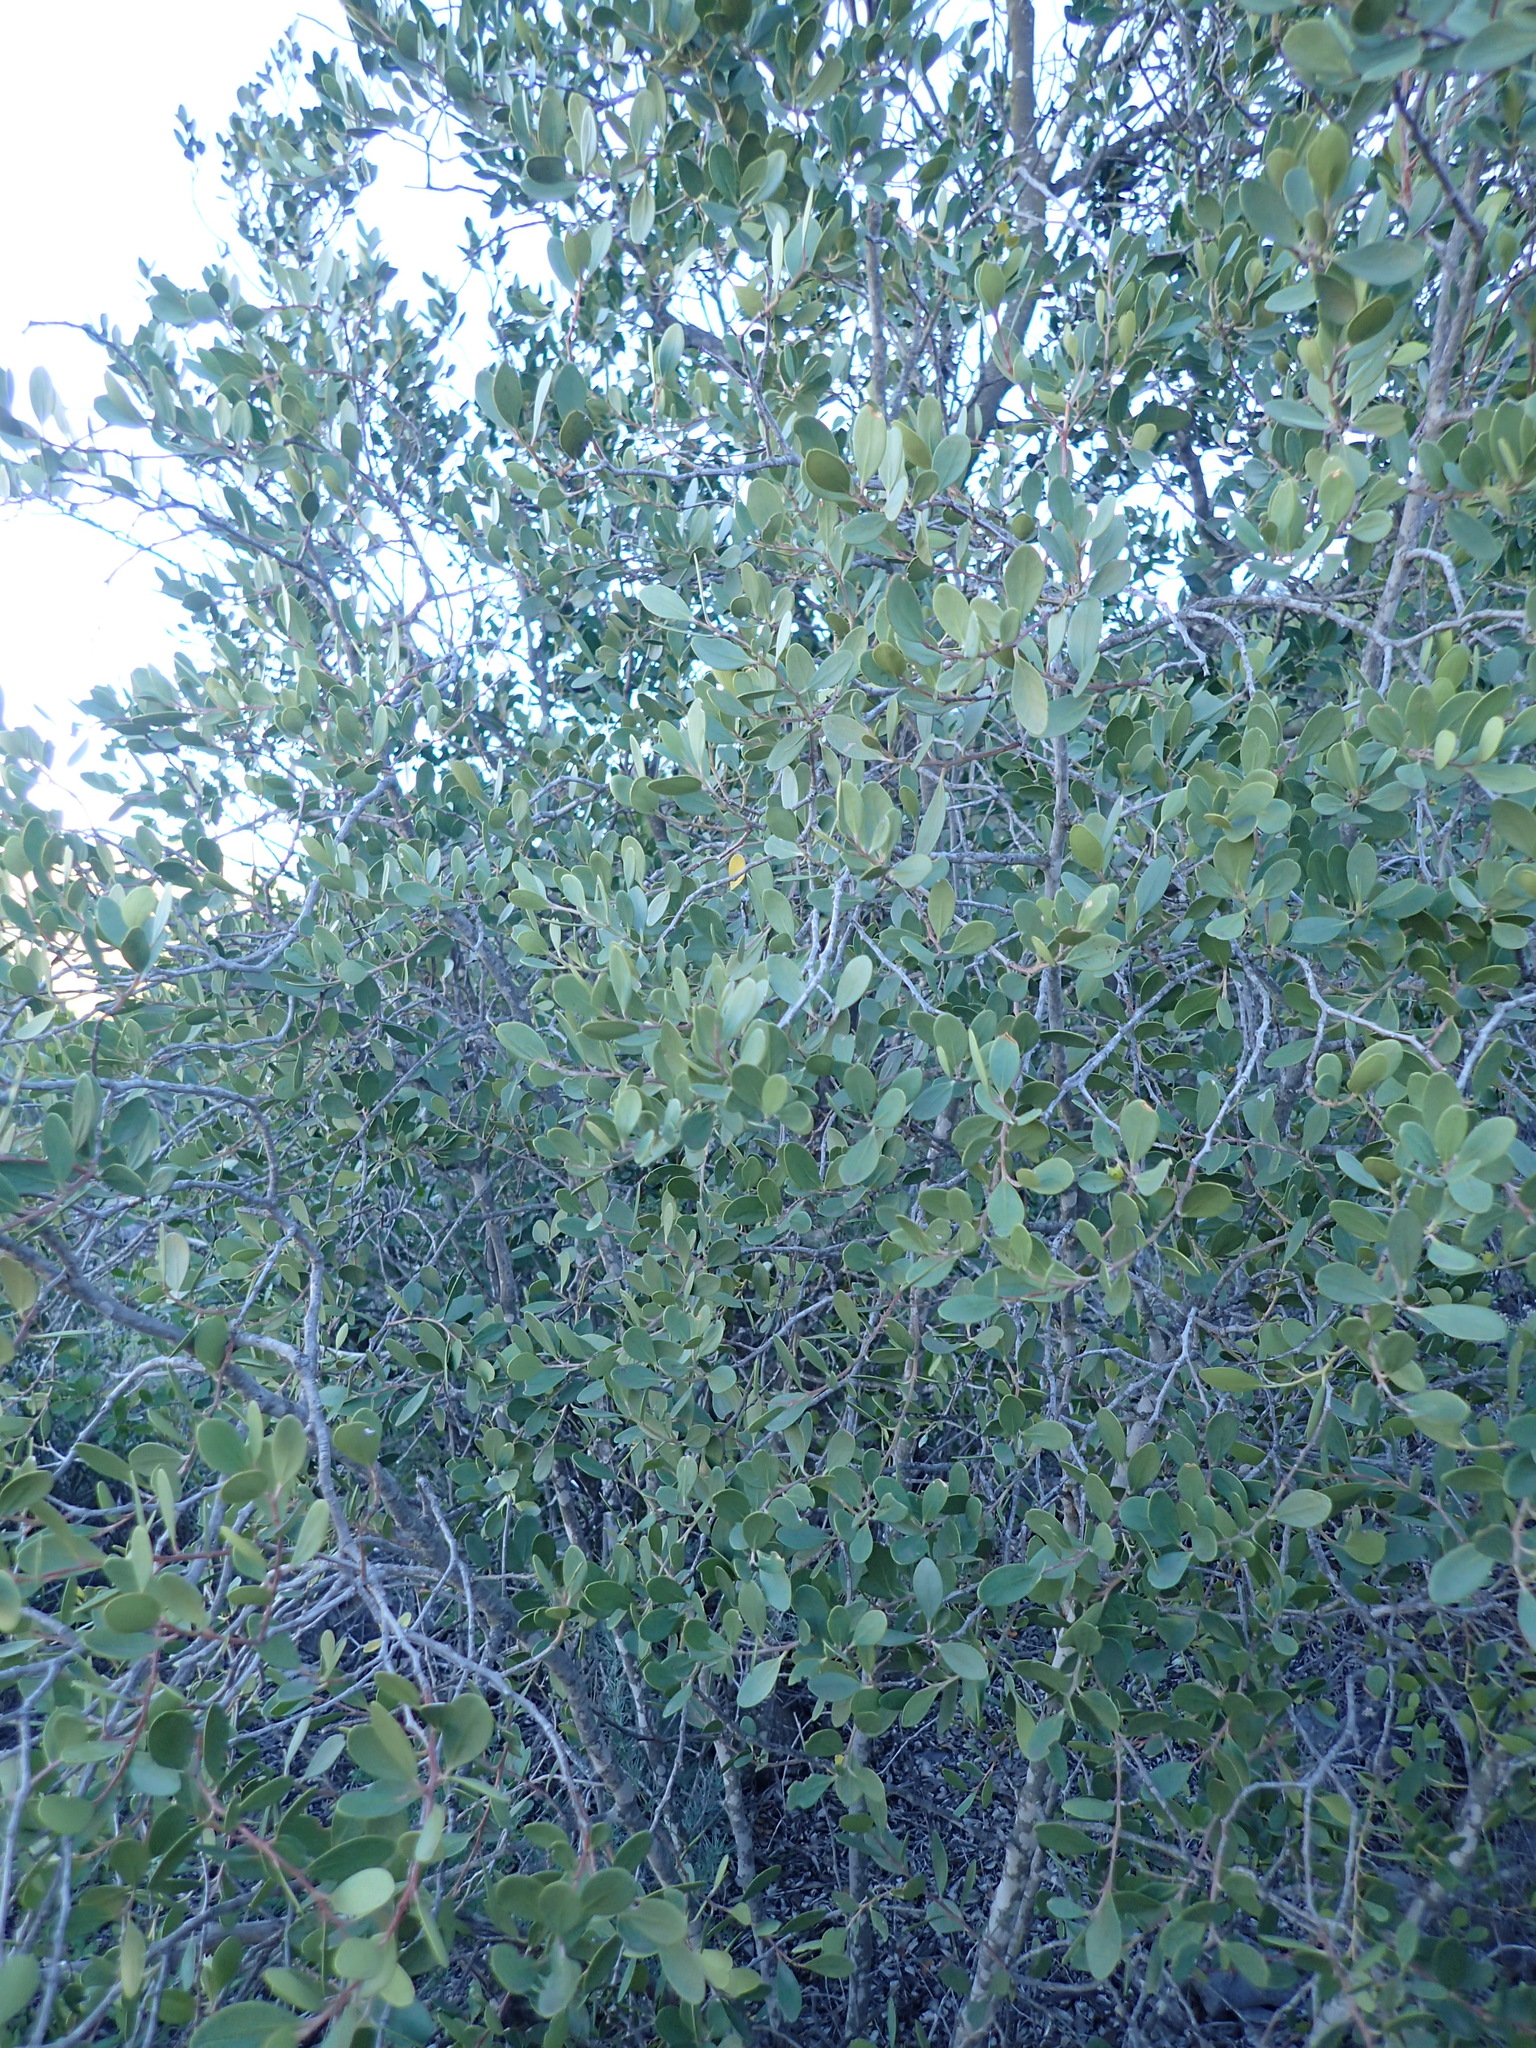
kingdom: Plantae
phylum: Tracheophyta
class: Magnoliopsida
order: Celastrales
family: Celastraceae
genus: Pterocelastrus
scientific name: Pterocelastrus tricuspidatus
